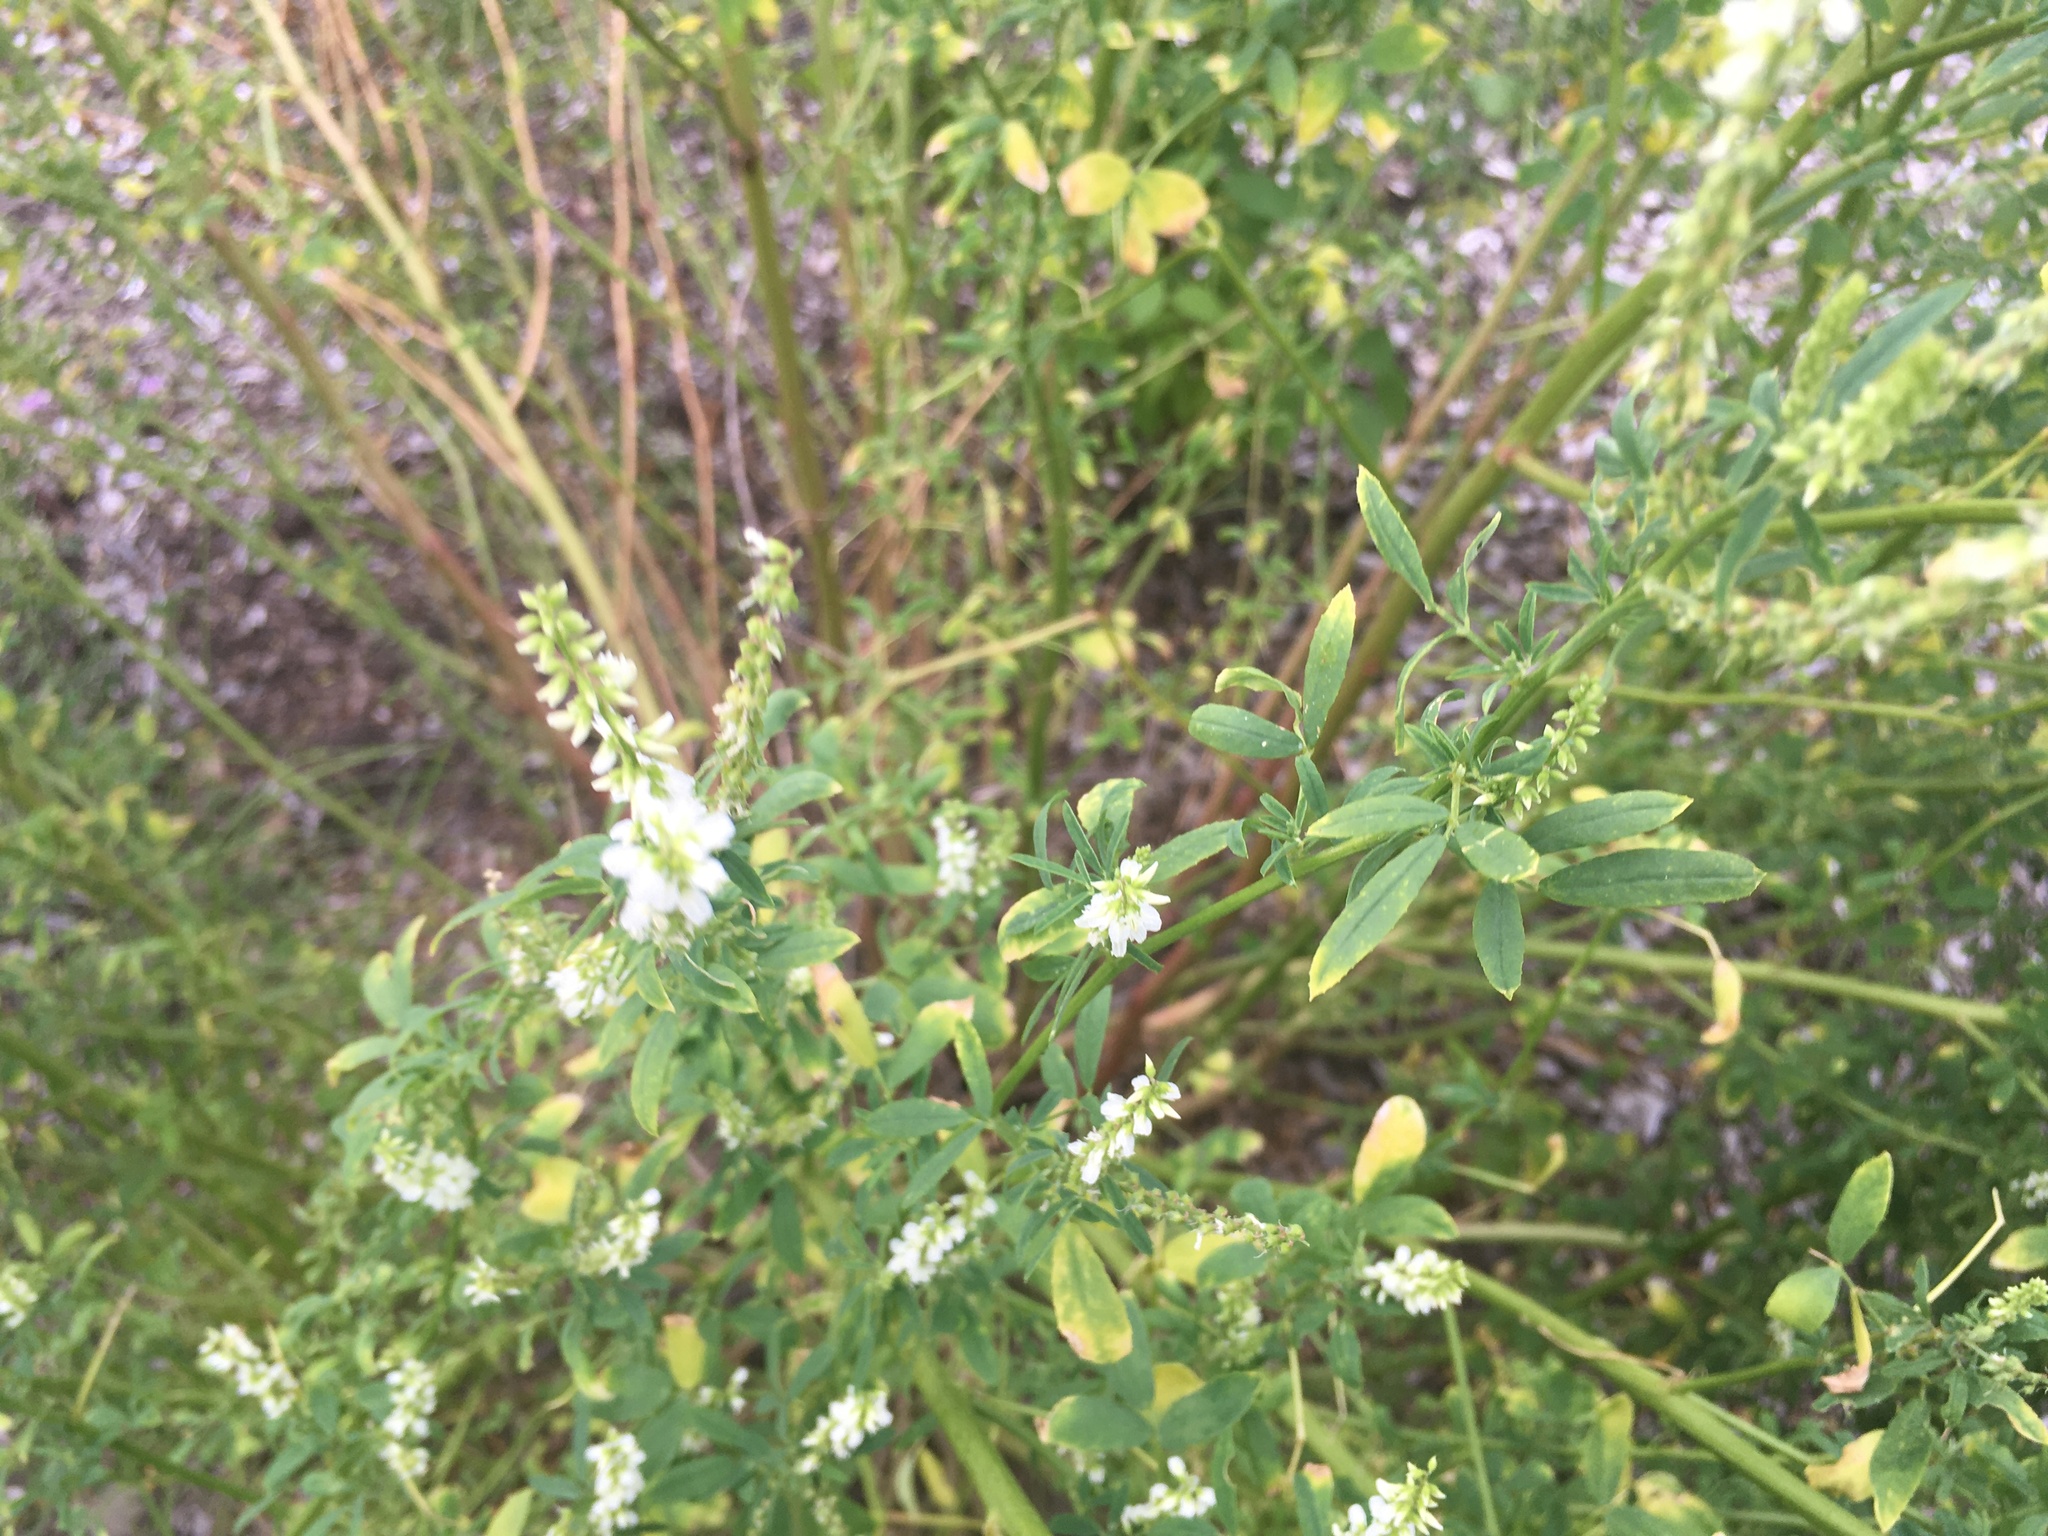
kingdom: Plantae
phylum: Tracheophyta
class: Magnoliopsida
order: Fabales
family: Fabaceae
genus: Melilotus
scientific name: Melilotus albus
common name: White melilot
